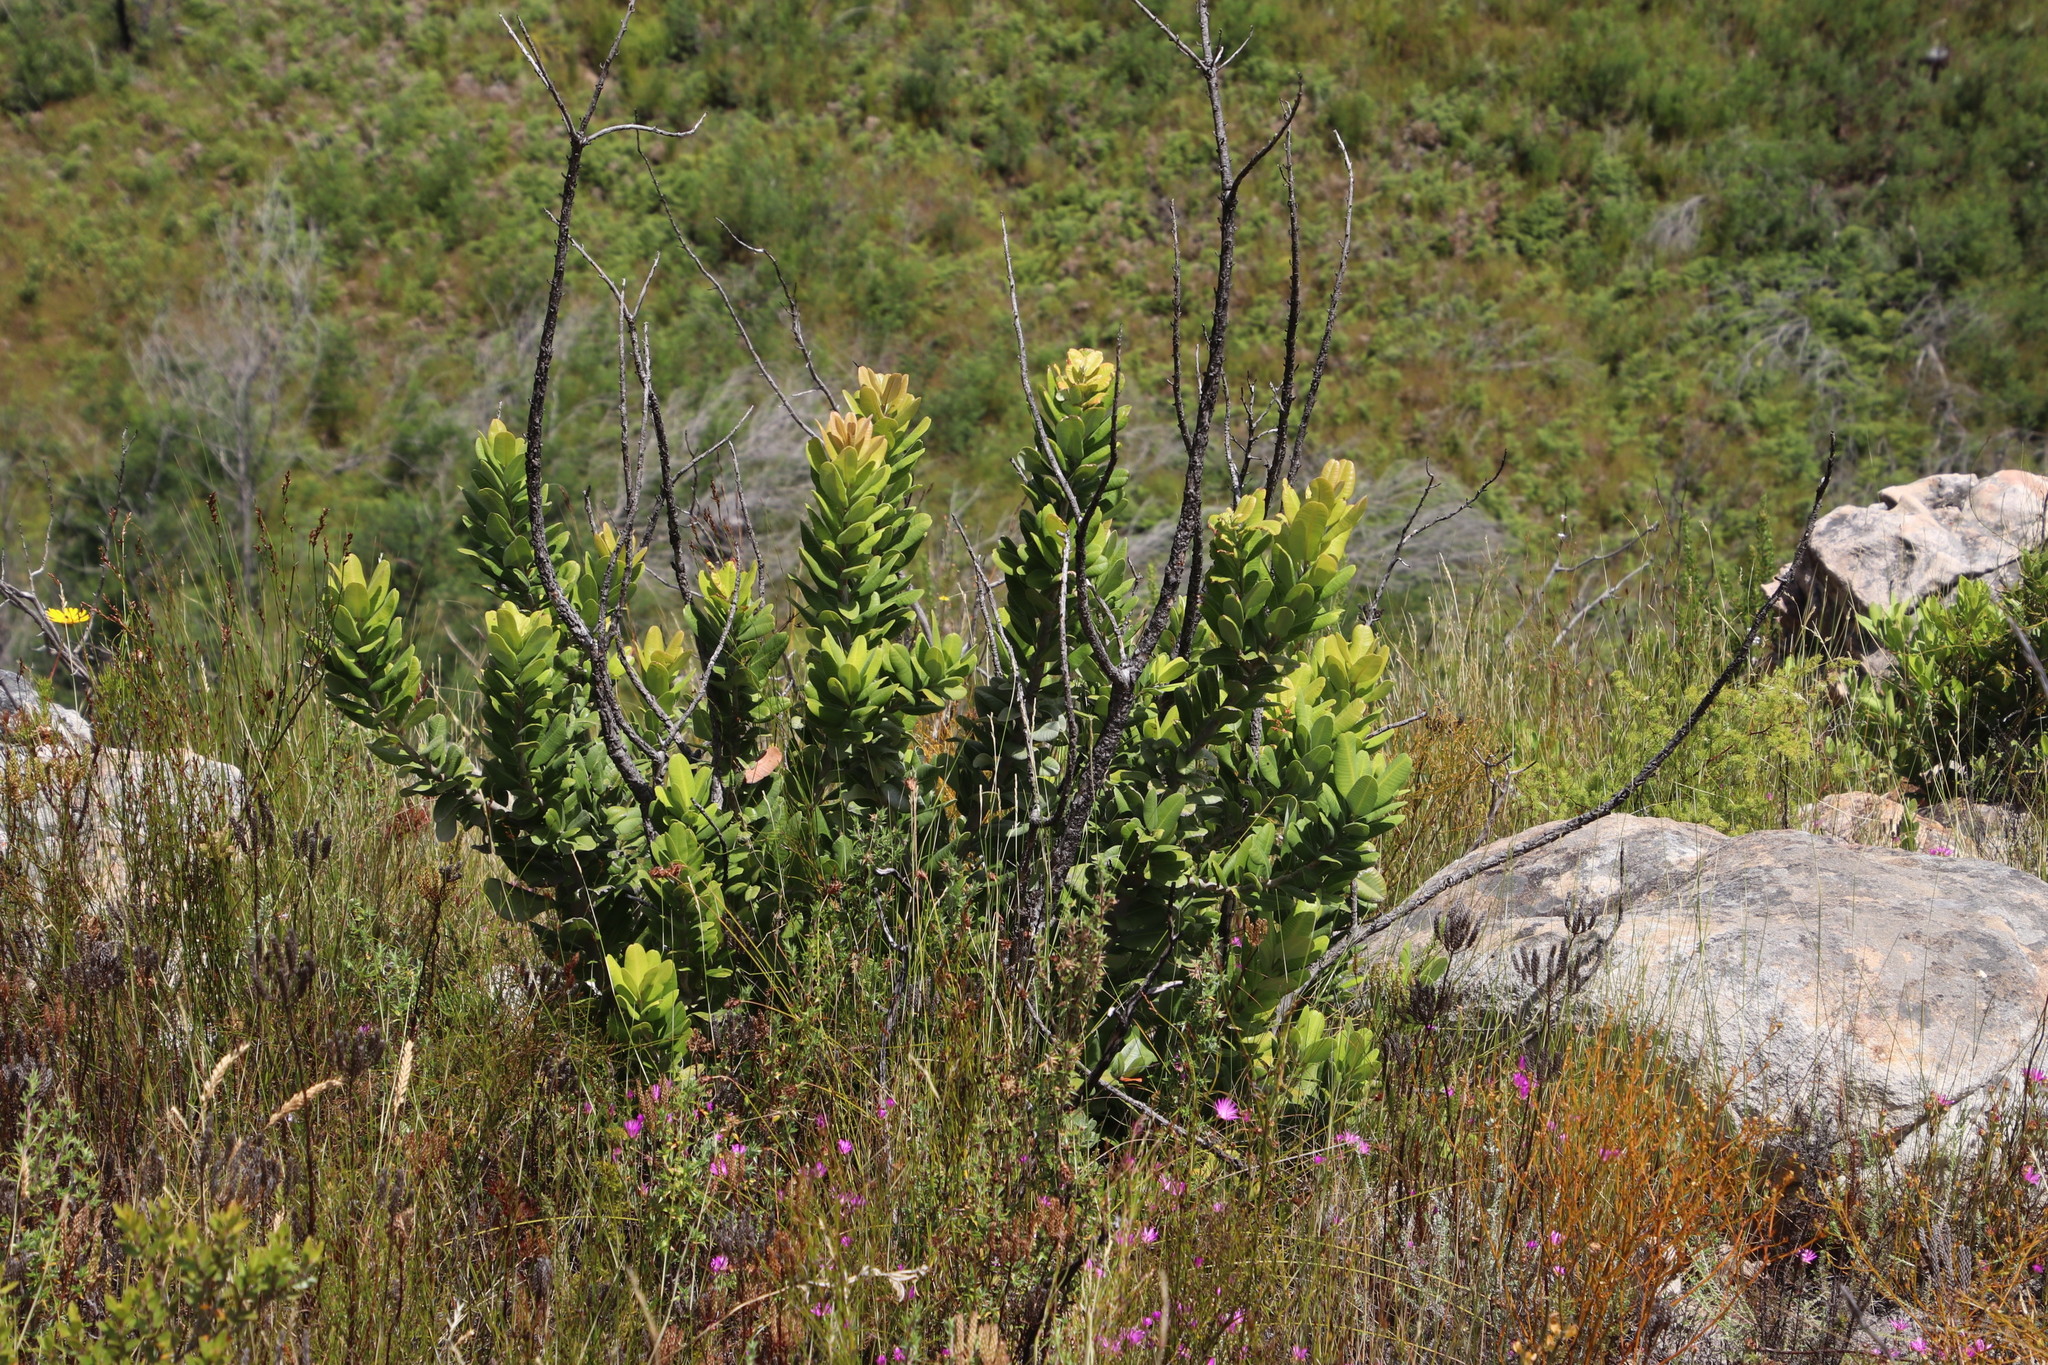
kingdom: Plantae
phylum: Tracheophyta
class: Magnoliopsida
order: Sapindales
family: Anacardiaceae
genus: Heeria
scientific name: Heeria argentea
